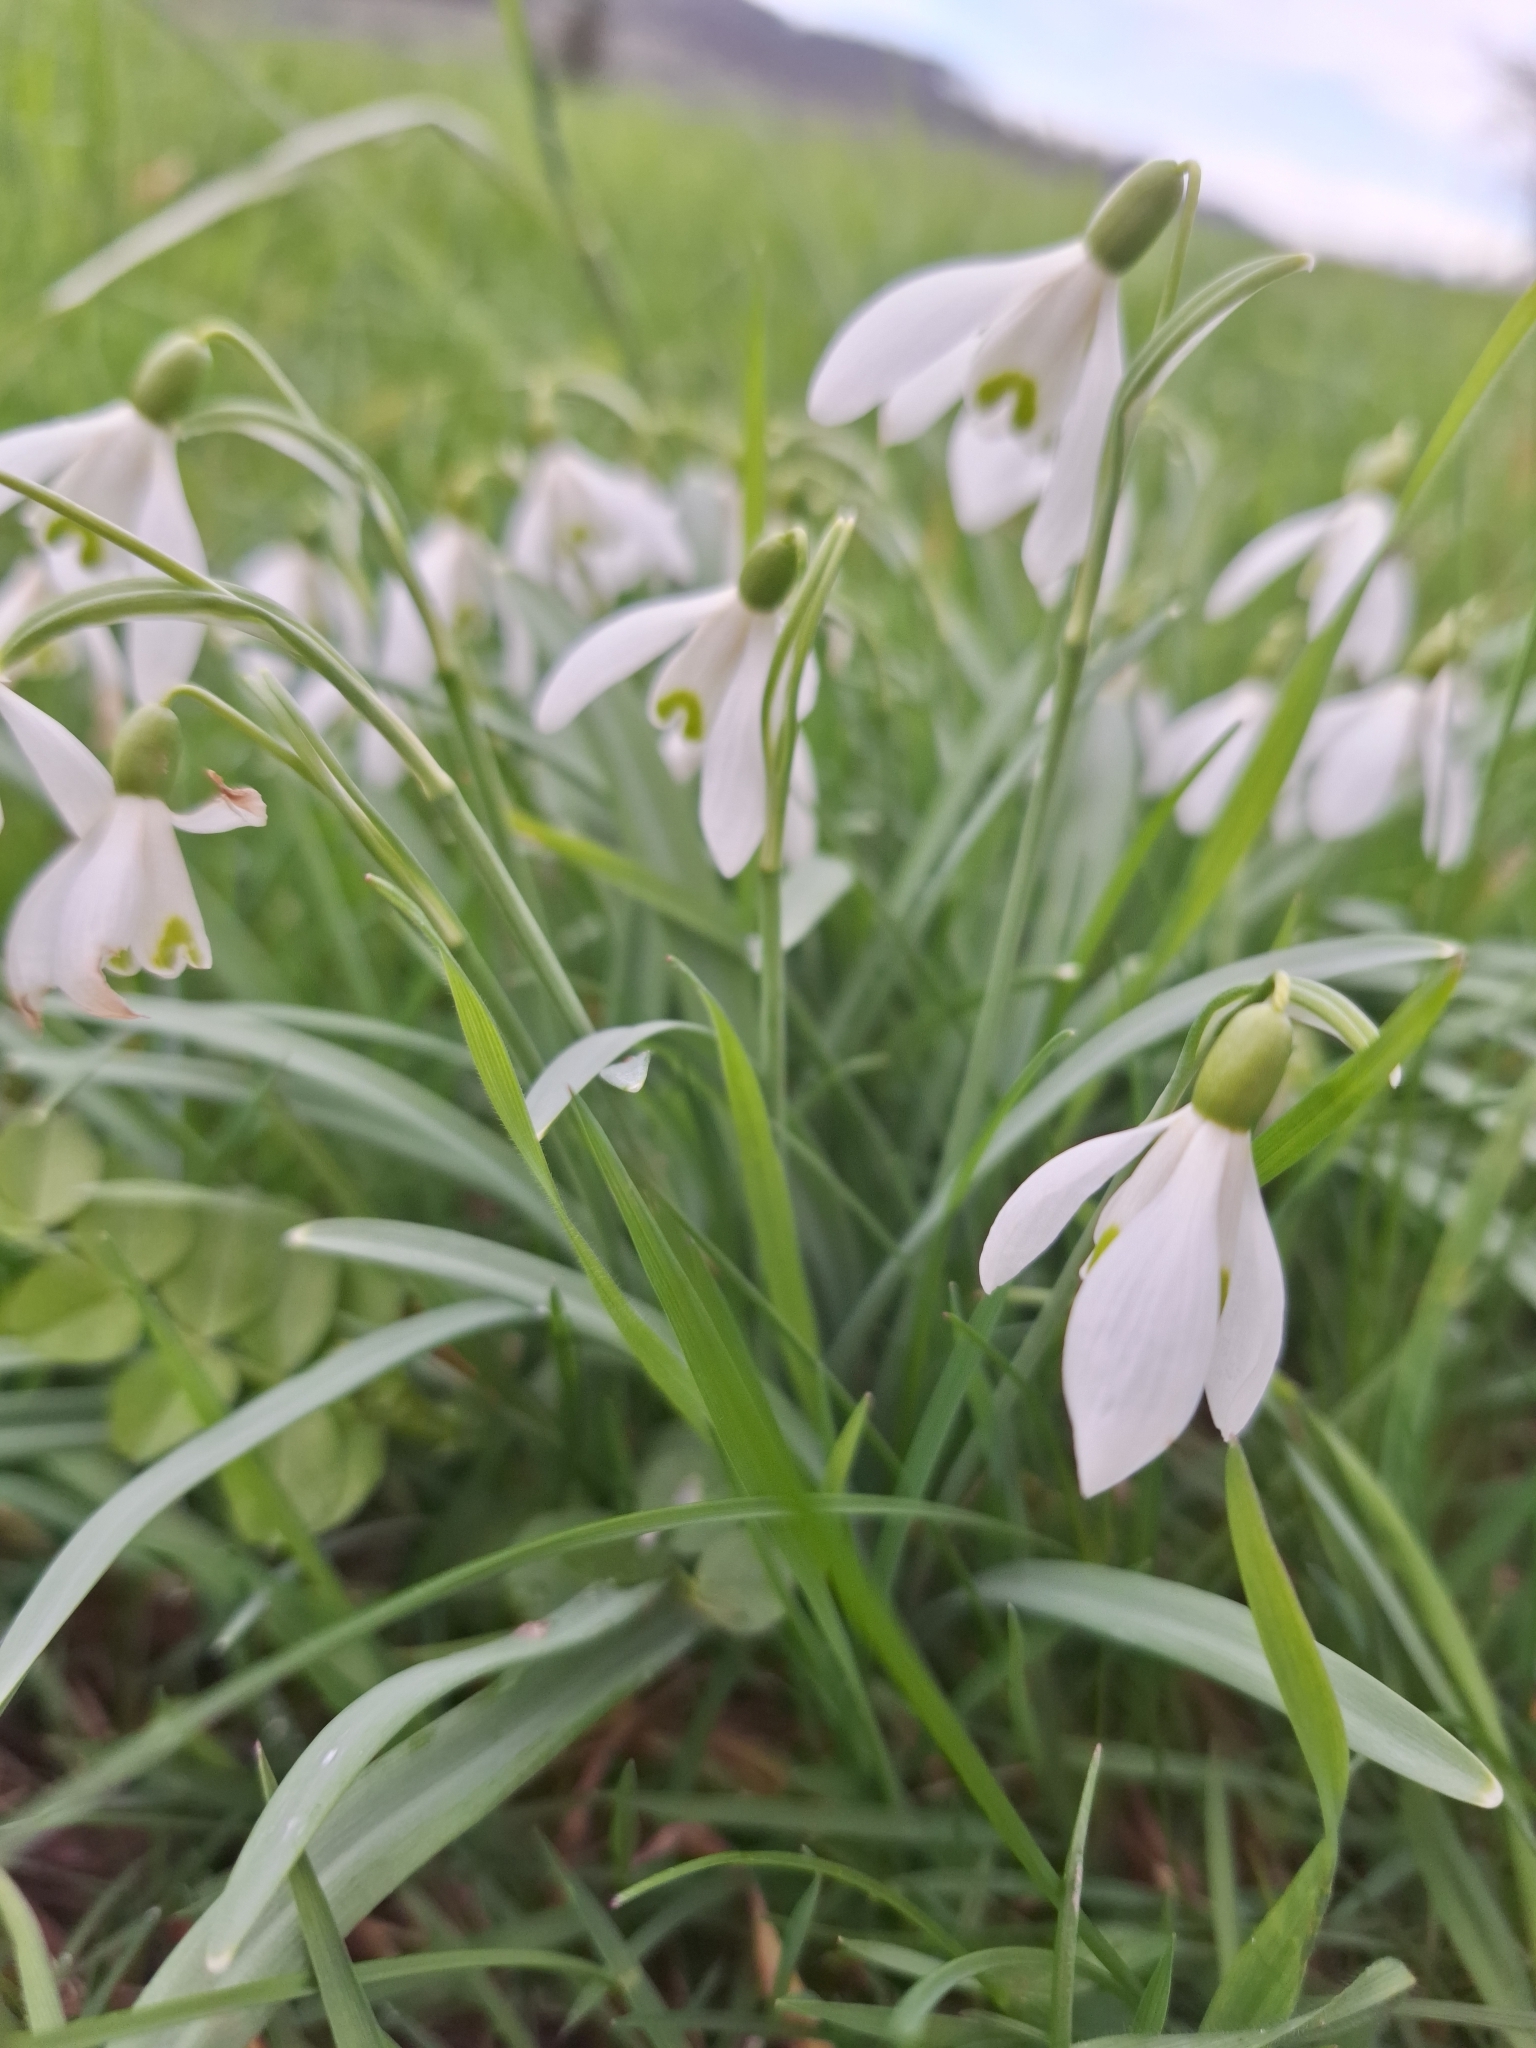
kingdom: Plantae
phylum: Tracheophyta
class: Liliopsida
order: Asparagales
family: Amaryllidaceae
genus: Galanthus
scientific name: Galanthus nivalis
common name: Snowdrop
